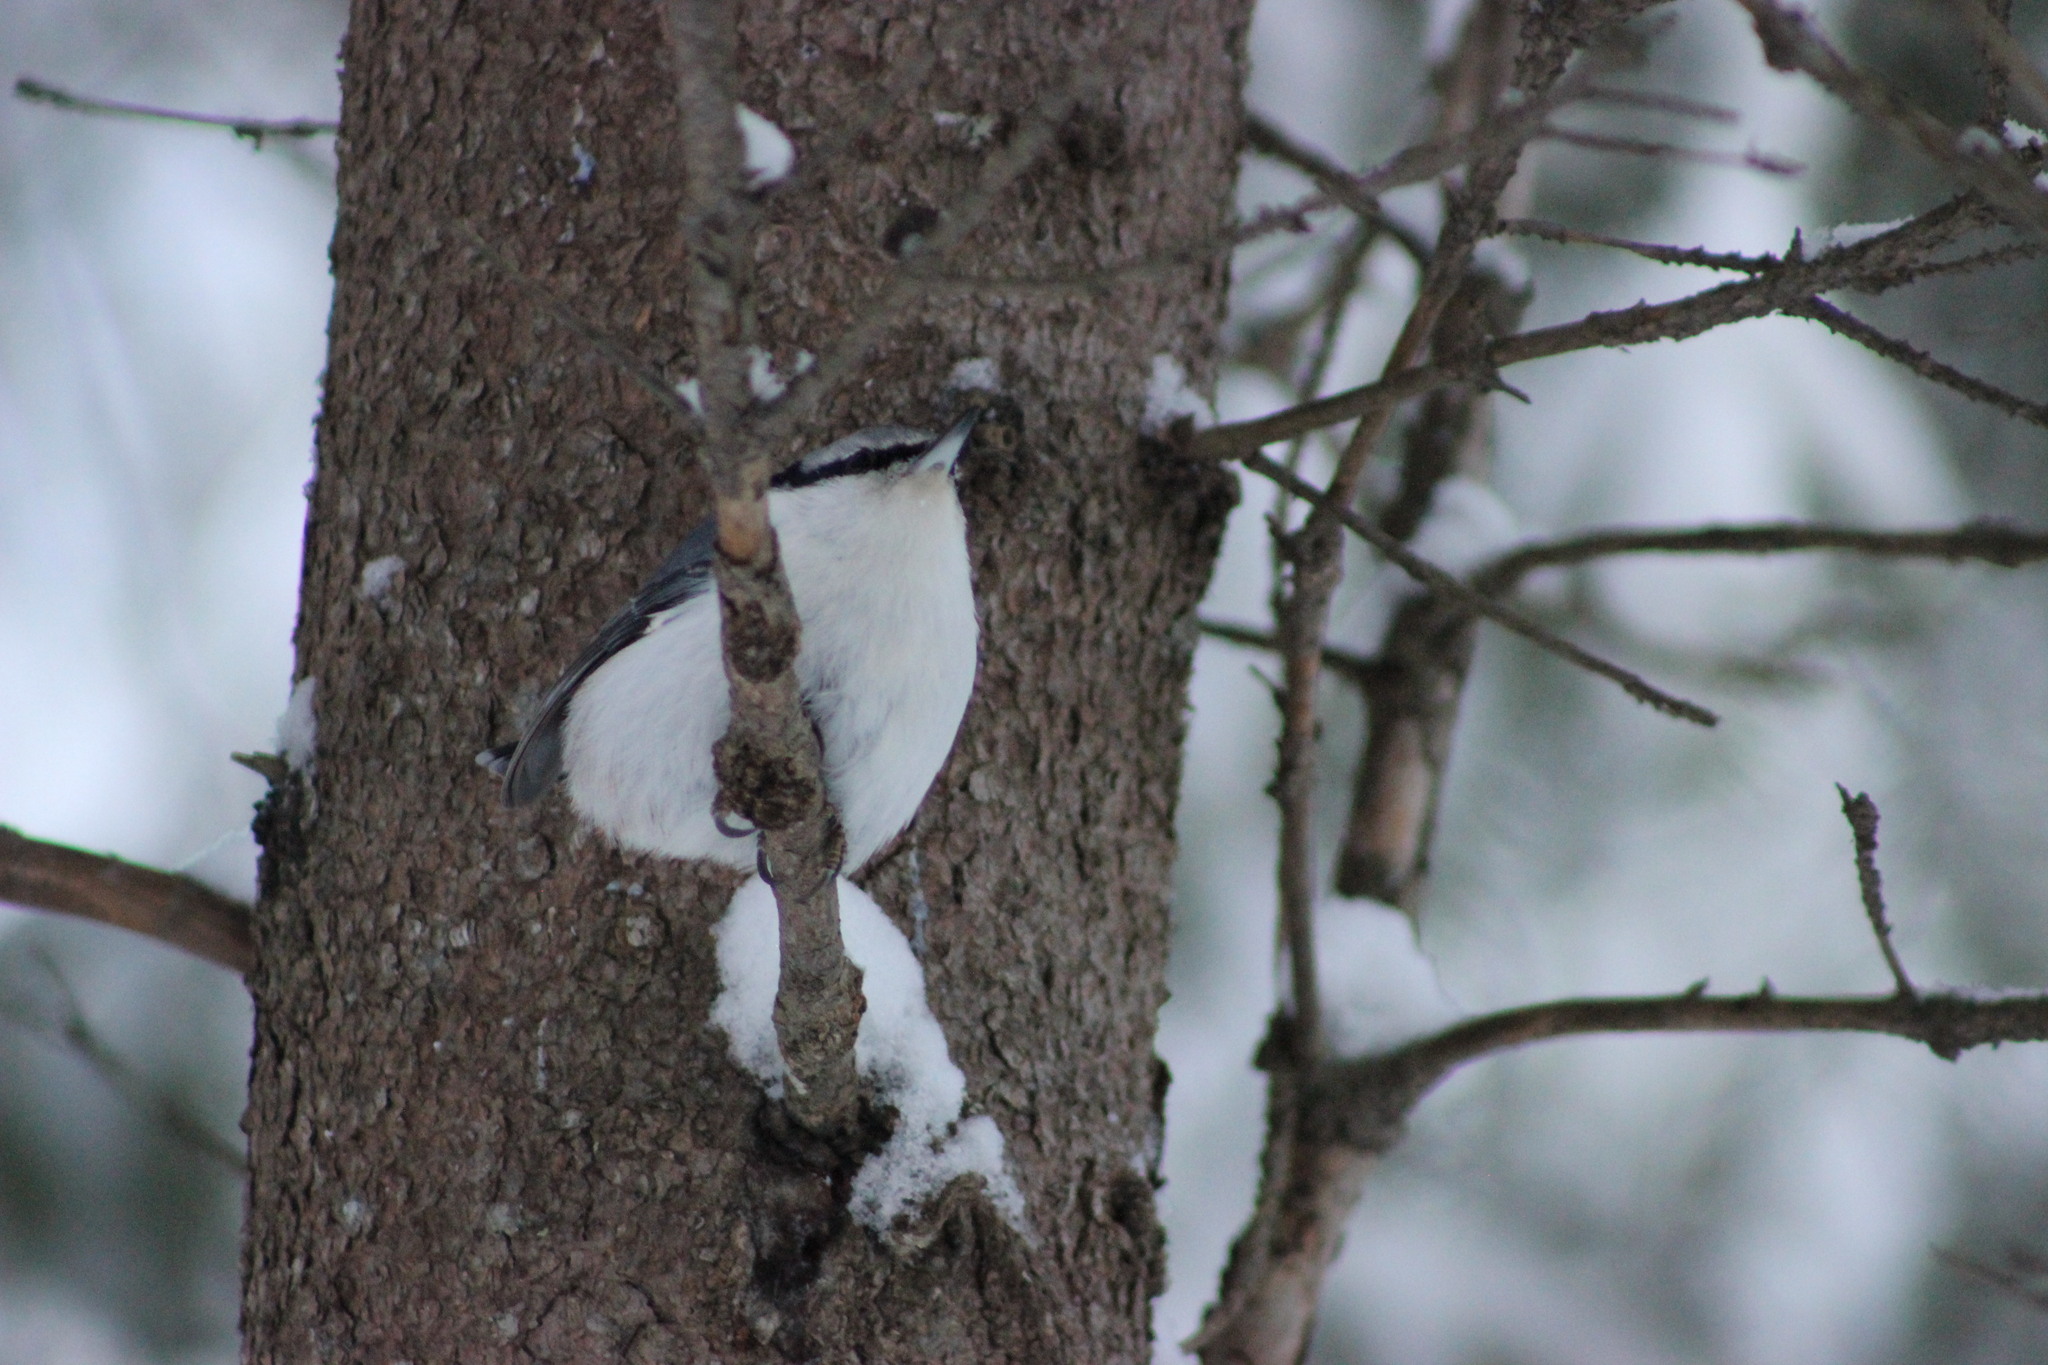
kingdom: Animalia
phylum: Chordata
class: Aves
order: Passeriformes
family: Sittidae
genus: Sitta
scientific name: Sitta europaea
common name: Eurasian nuthatch
